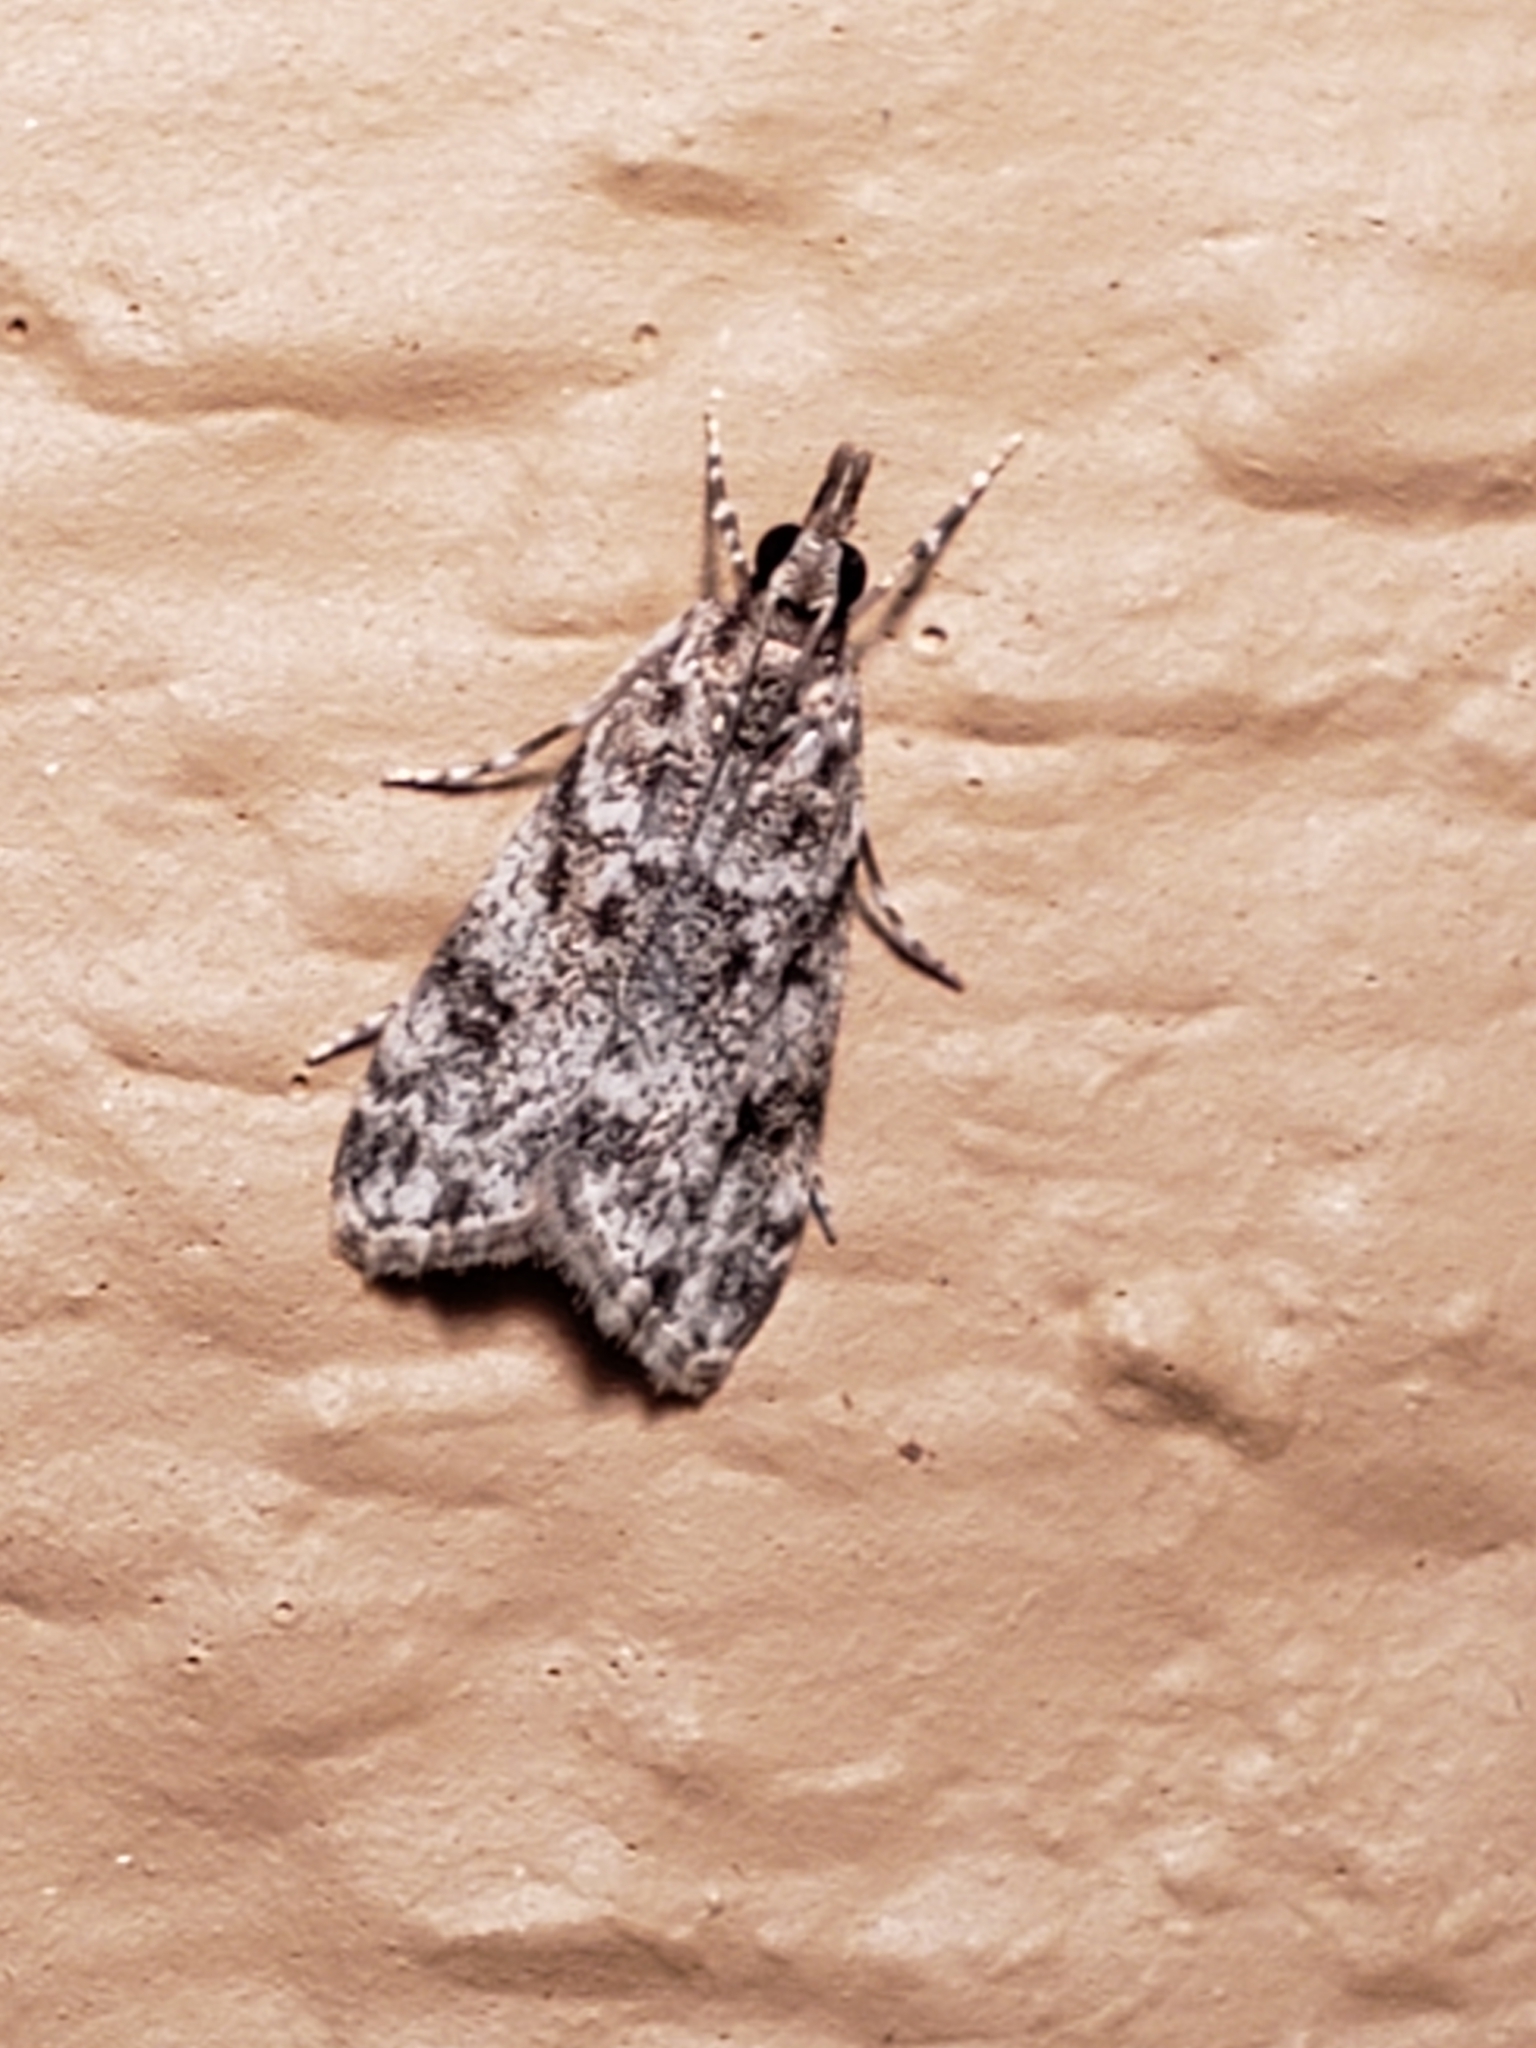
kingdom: Animalia
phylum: Arthropoda
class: Insecta
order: Lepidoptera
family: Crambidae
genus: Eudonia
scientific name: Eudonia heterosalis
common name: Mcdunnough's eudonia
